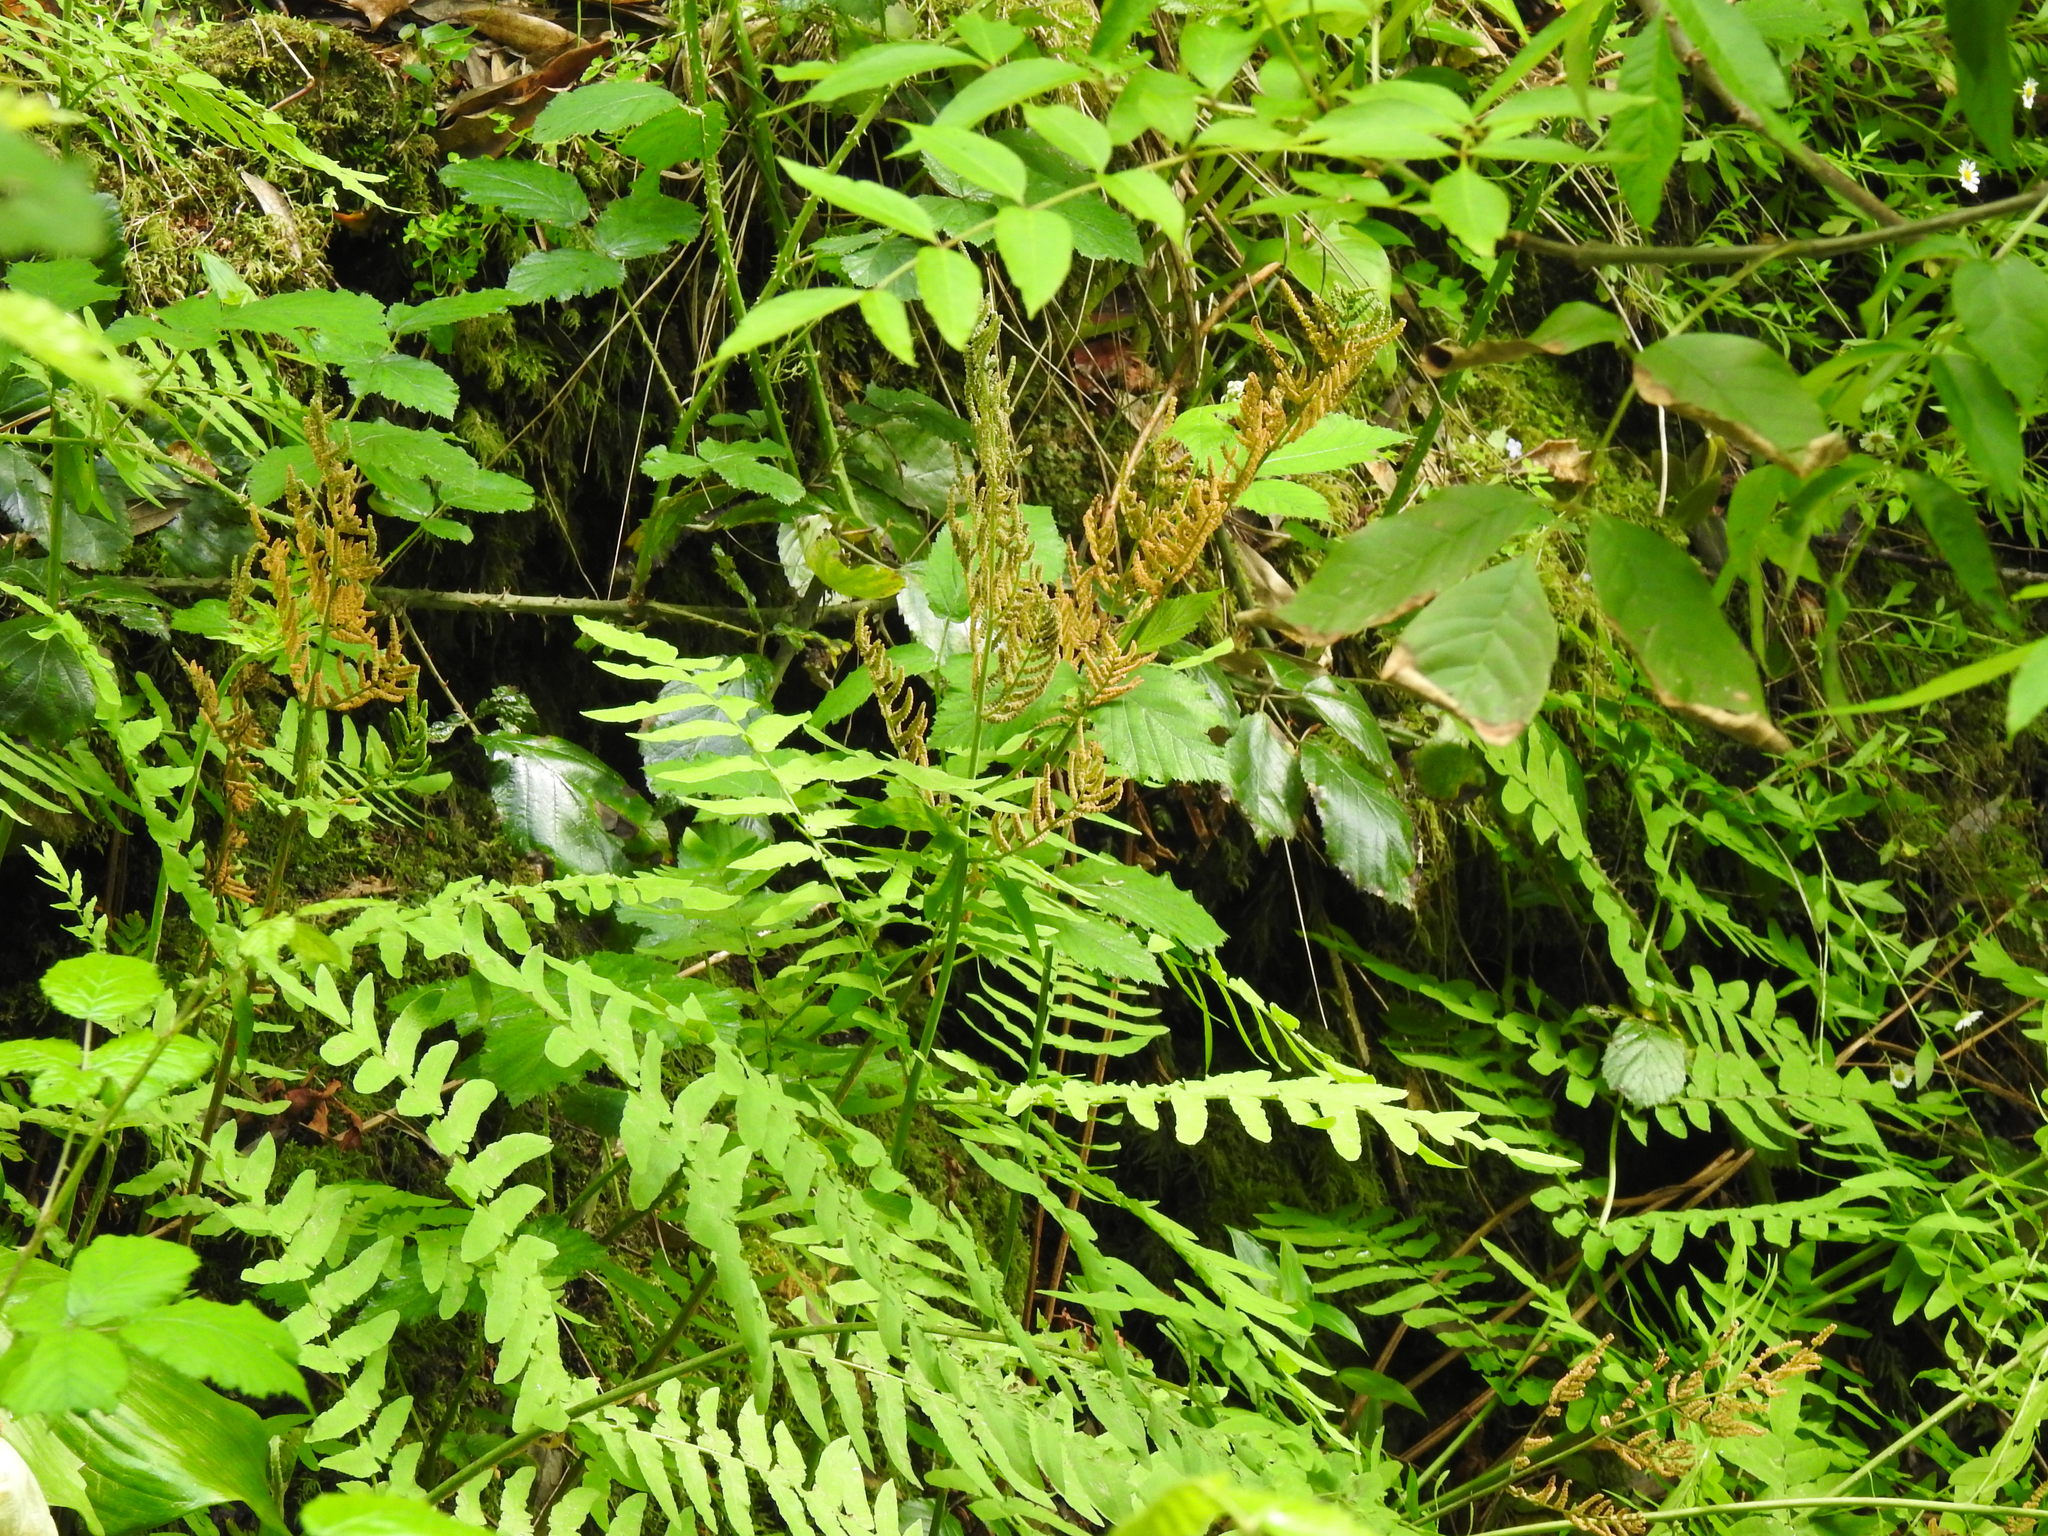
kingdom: Plantae
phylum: Tracheophyta
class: Polypodiopsida
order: Osmundales
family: Osmundaceae
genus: Osmunda
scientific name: Osmunda regalis
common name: Royal fern
